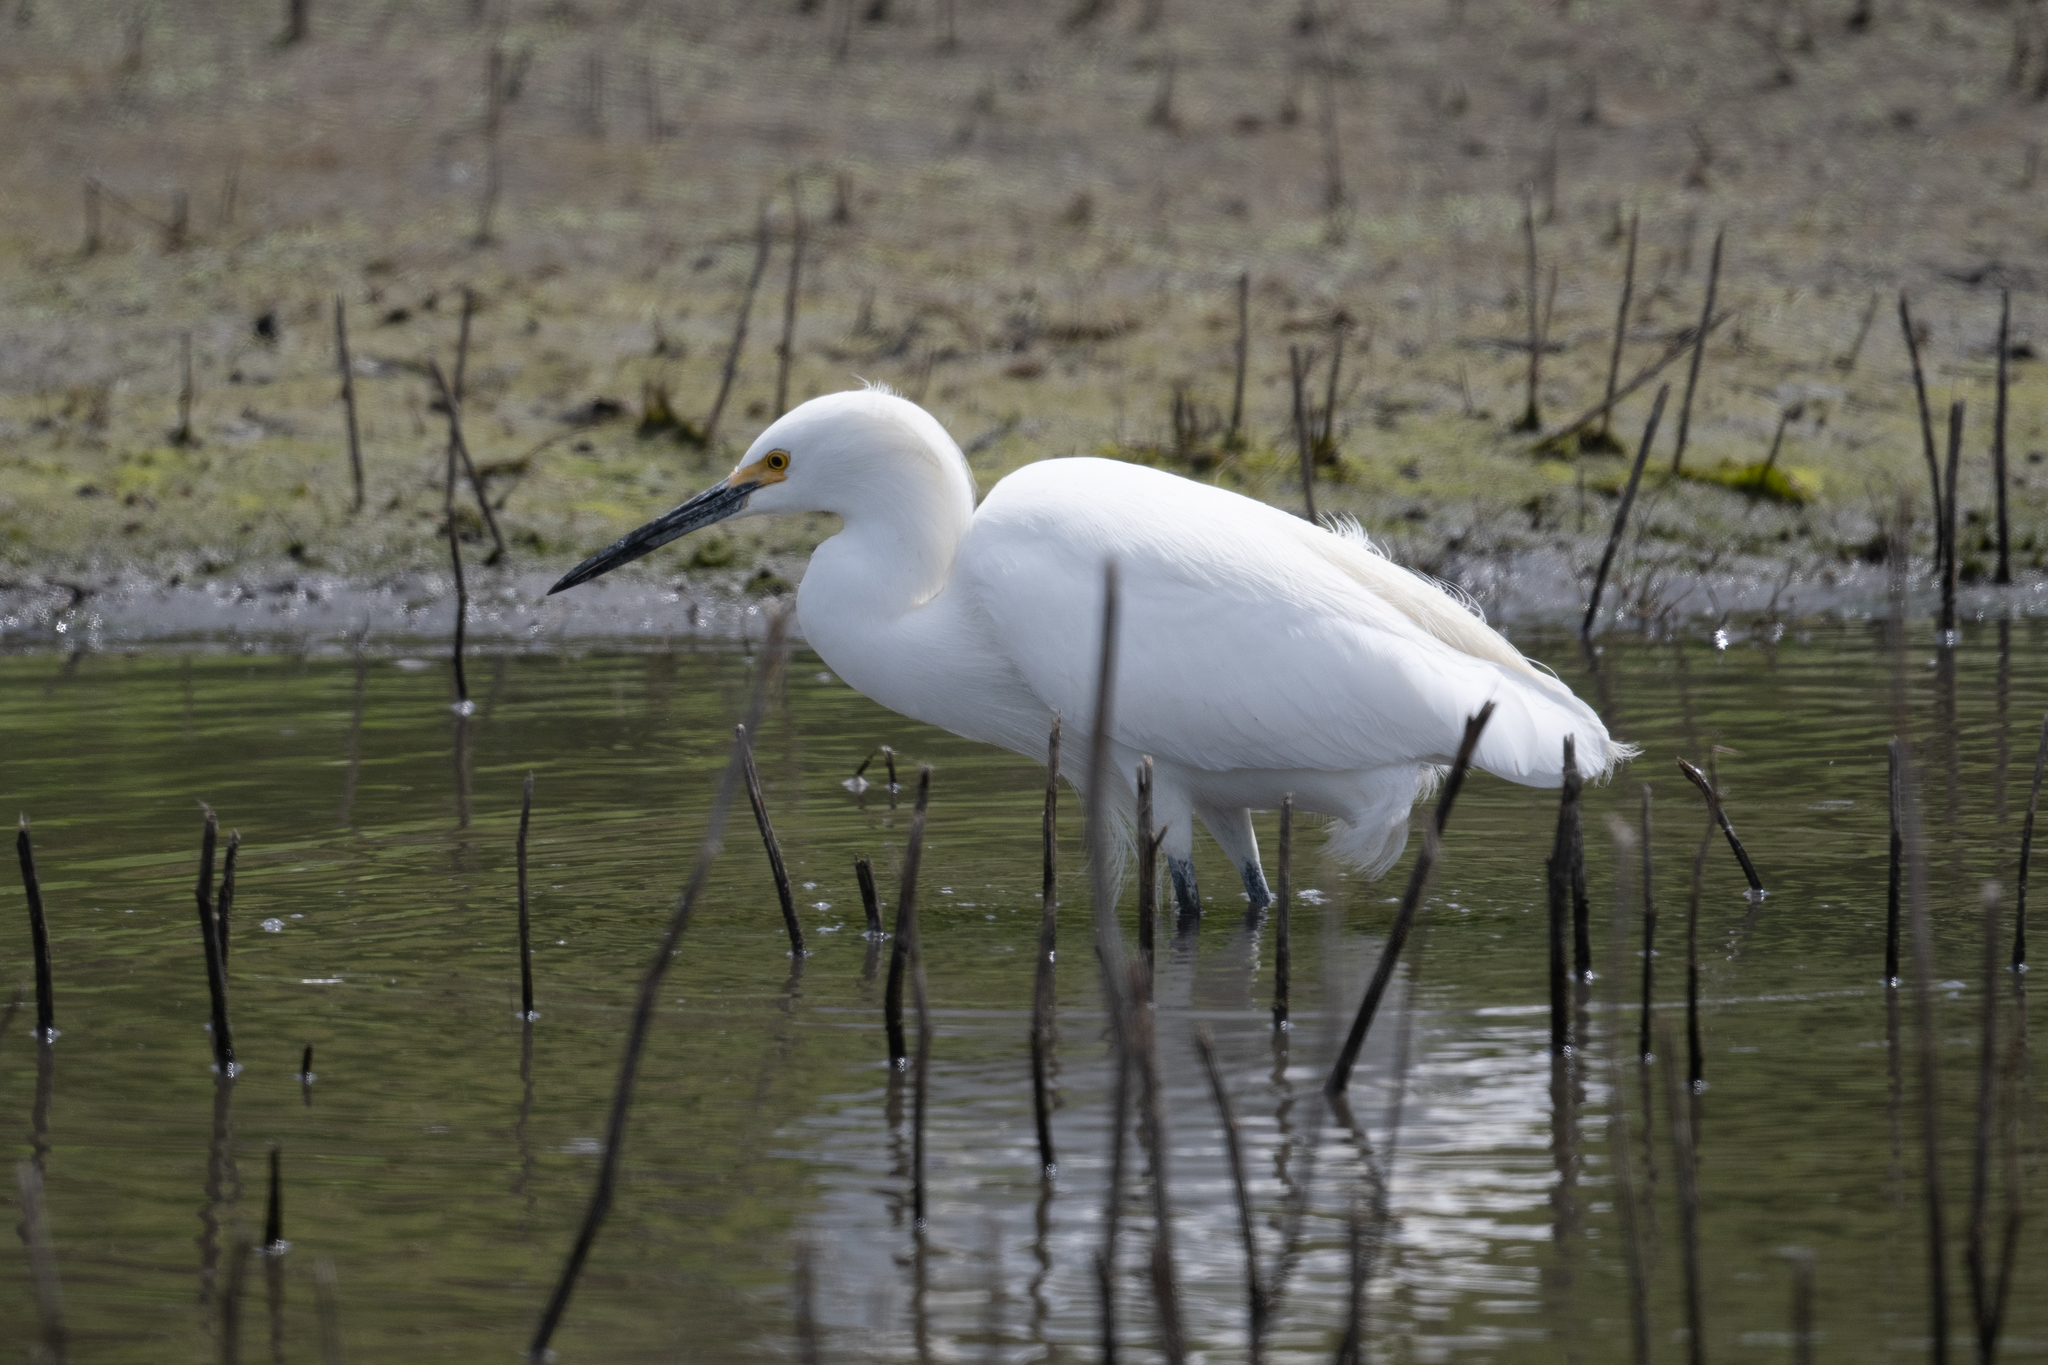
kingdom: Animalia
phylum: Chordata
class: Aves
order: Pelecaniformes
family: Ardeidae
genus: Egretta
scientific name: Egretta thula
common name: Snowy egret
